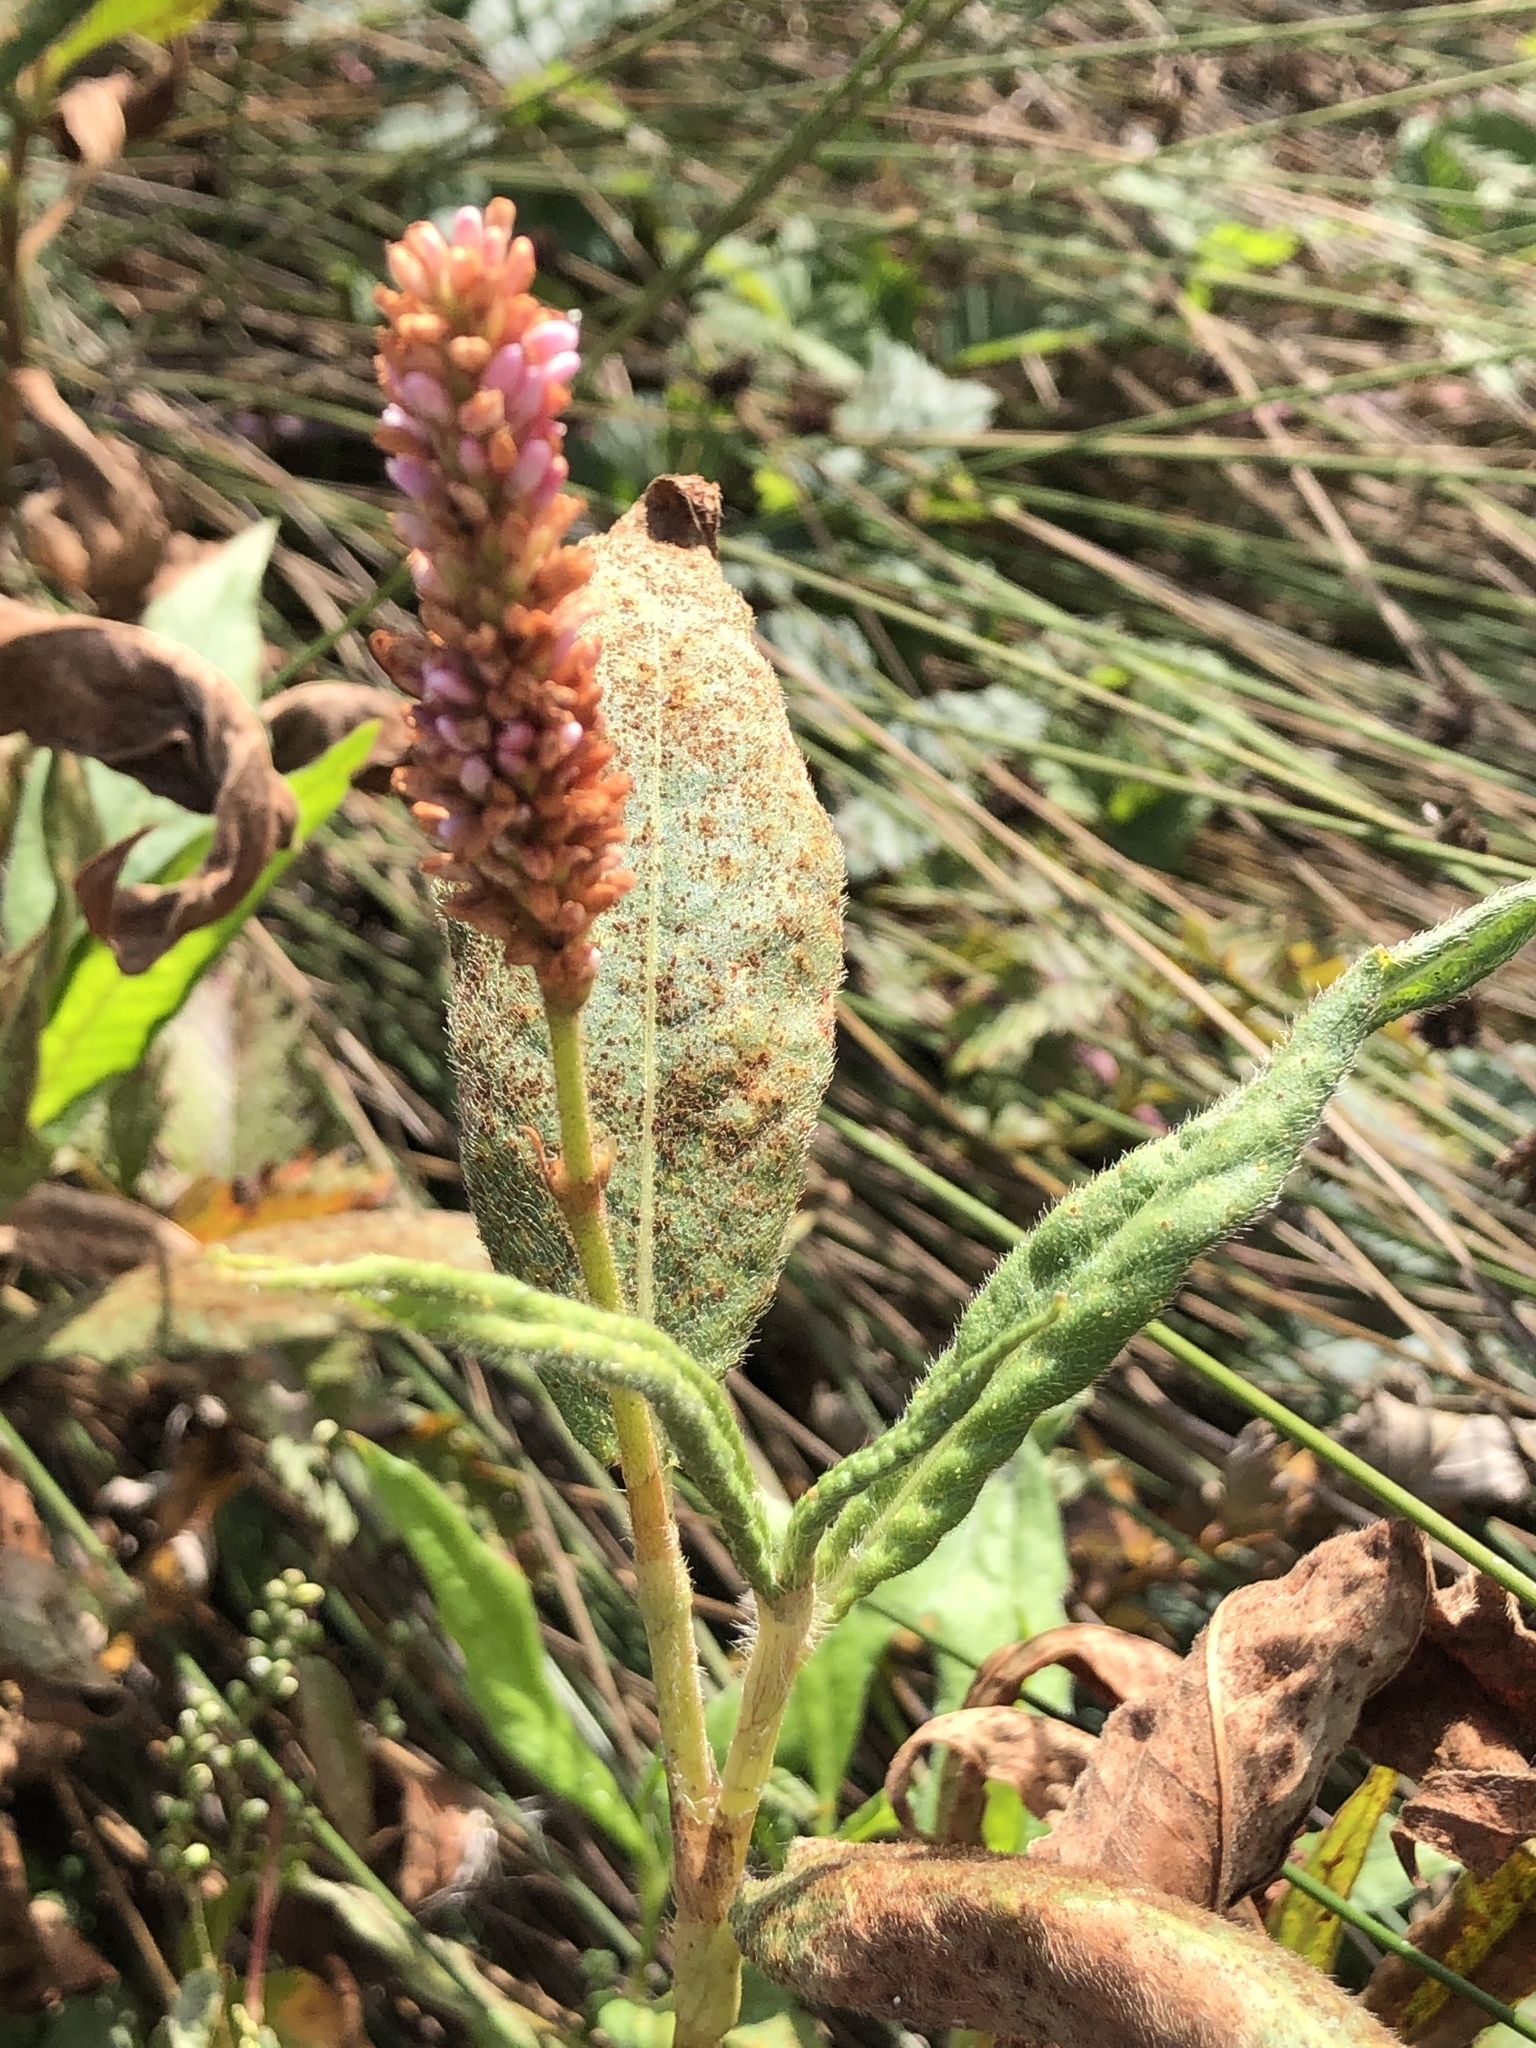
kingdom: Plantae
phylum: Tracheophyta
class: Magnoliopsida
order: Caryophyllales
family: Polygonaceae
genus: Persicaria
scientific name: Persicaria amphibia
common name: Amphibious bistort
